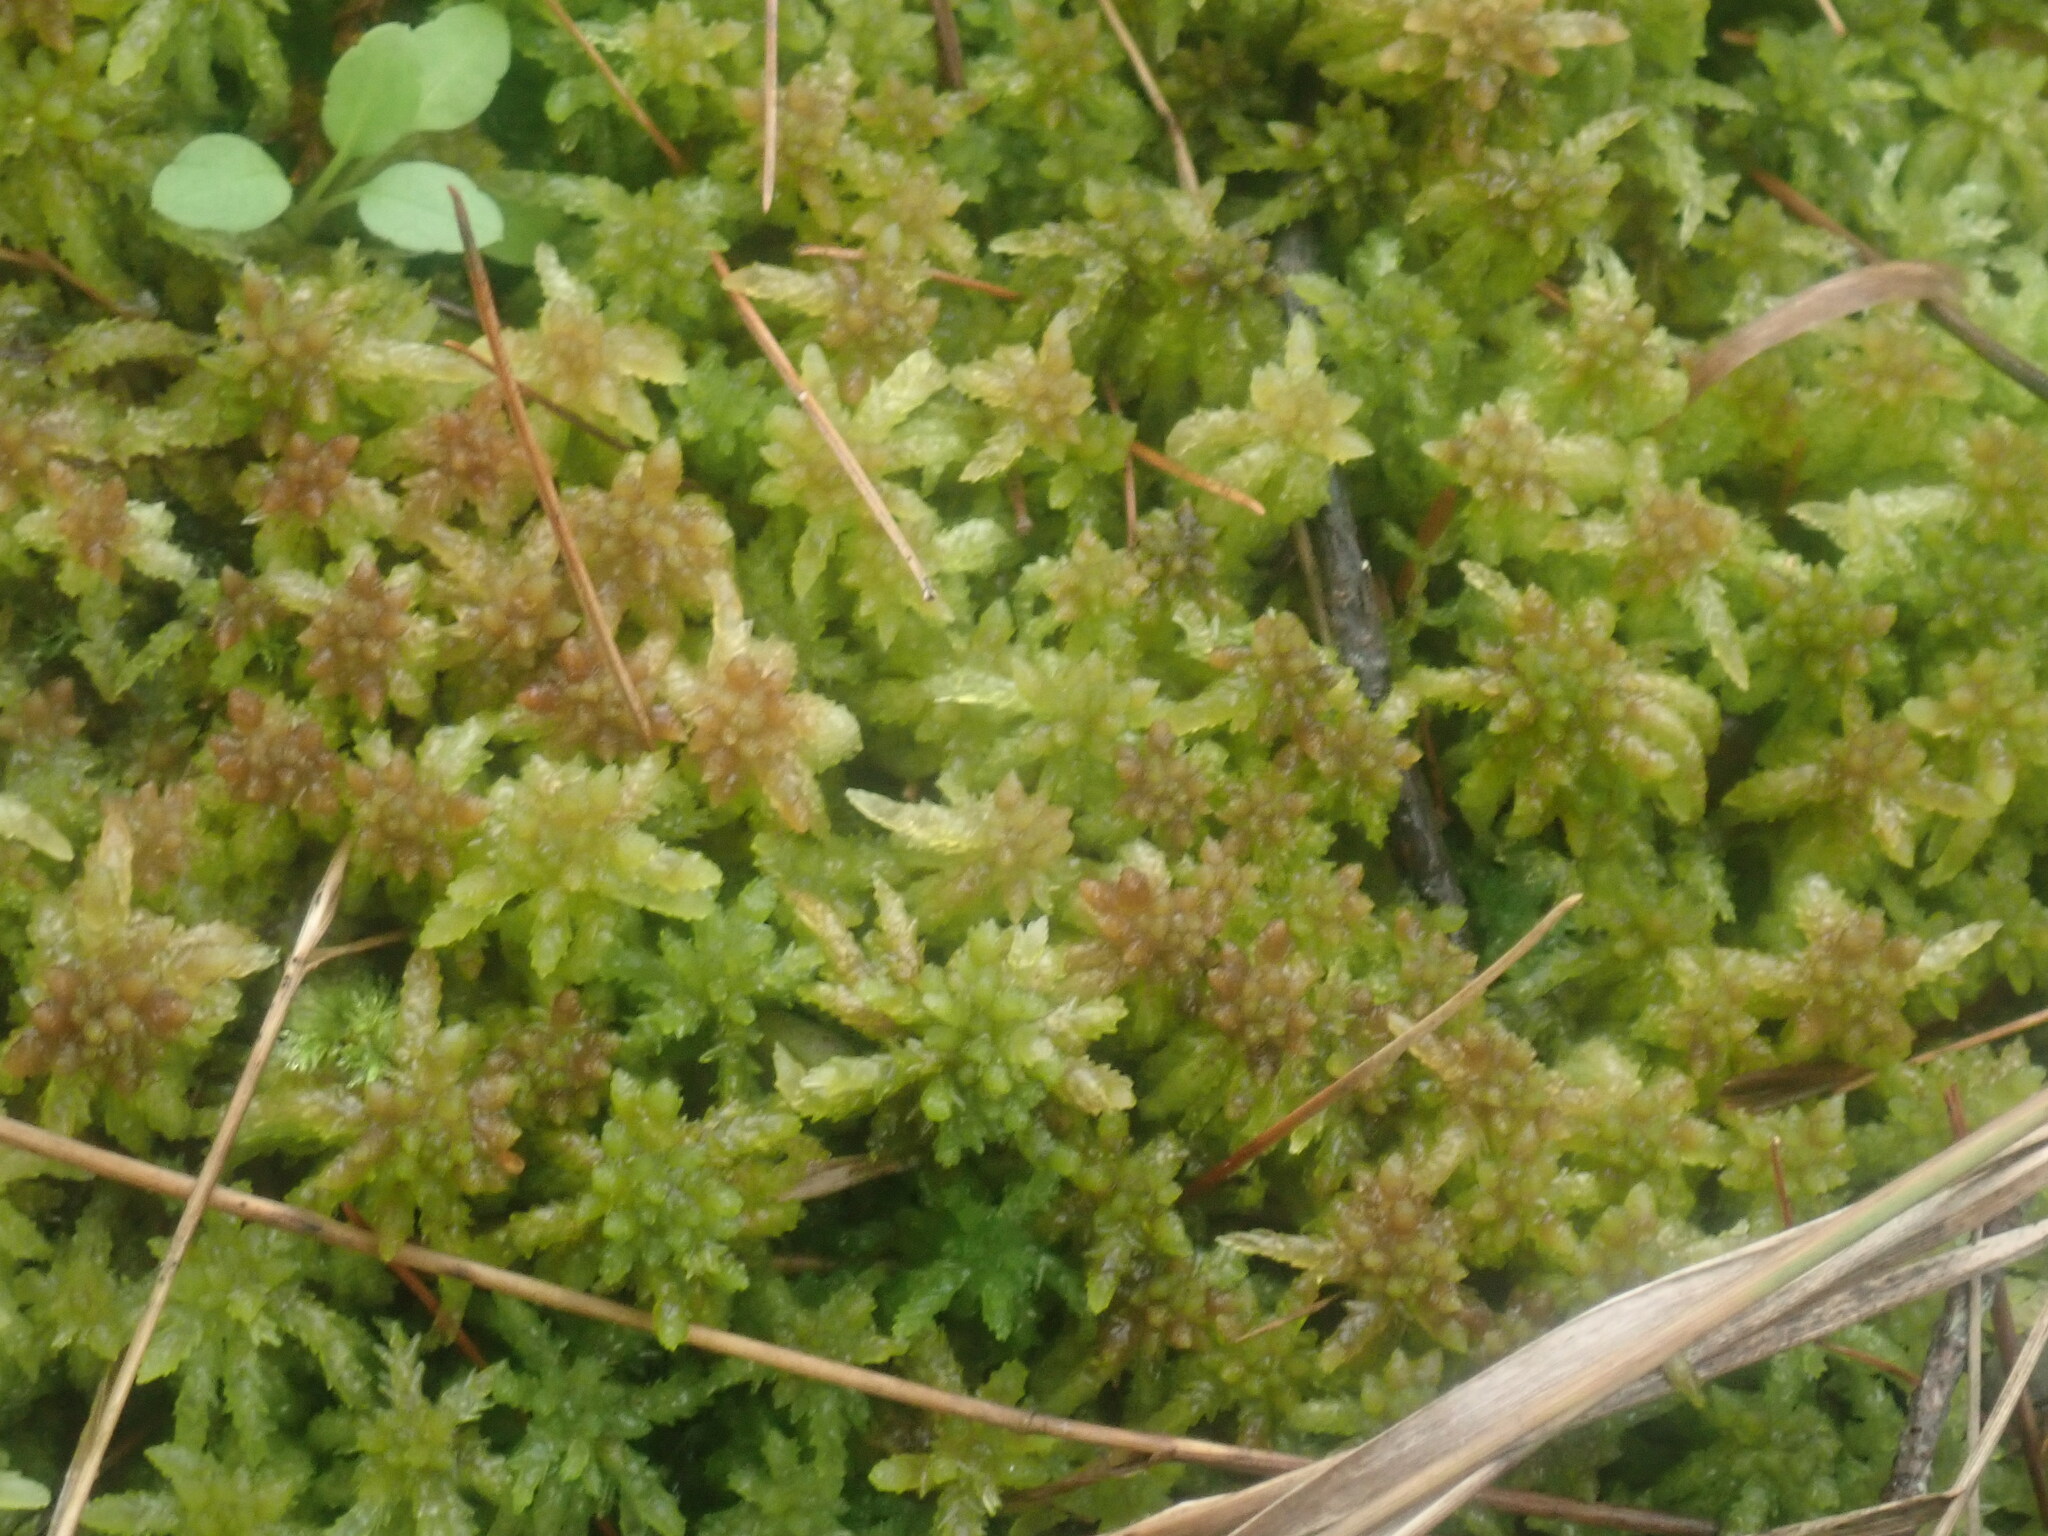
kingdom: Plantae
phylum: Bryophyta
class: Sphagnopsida
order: Sphagnales
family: Sphagnaceae
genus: Sphagnum
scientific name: Sphagnum
